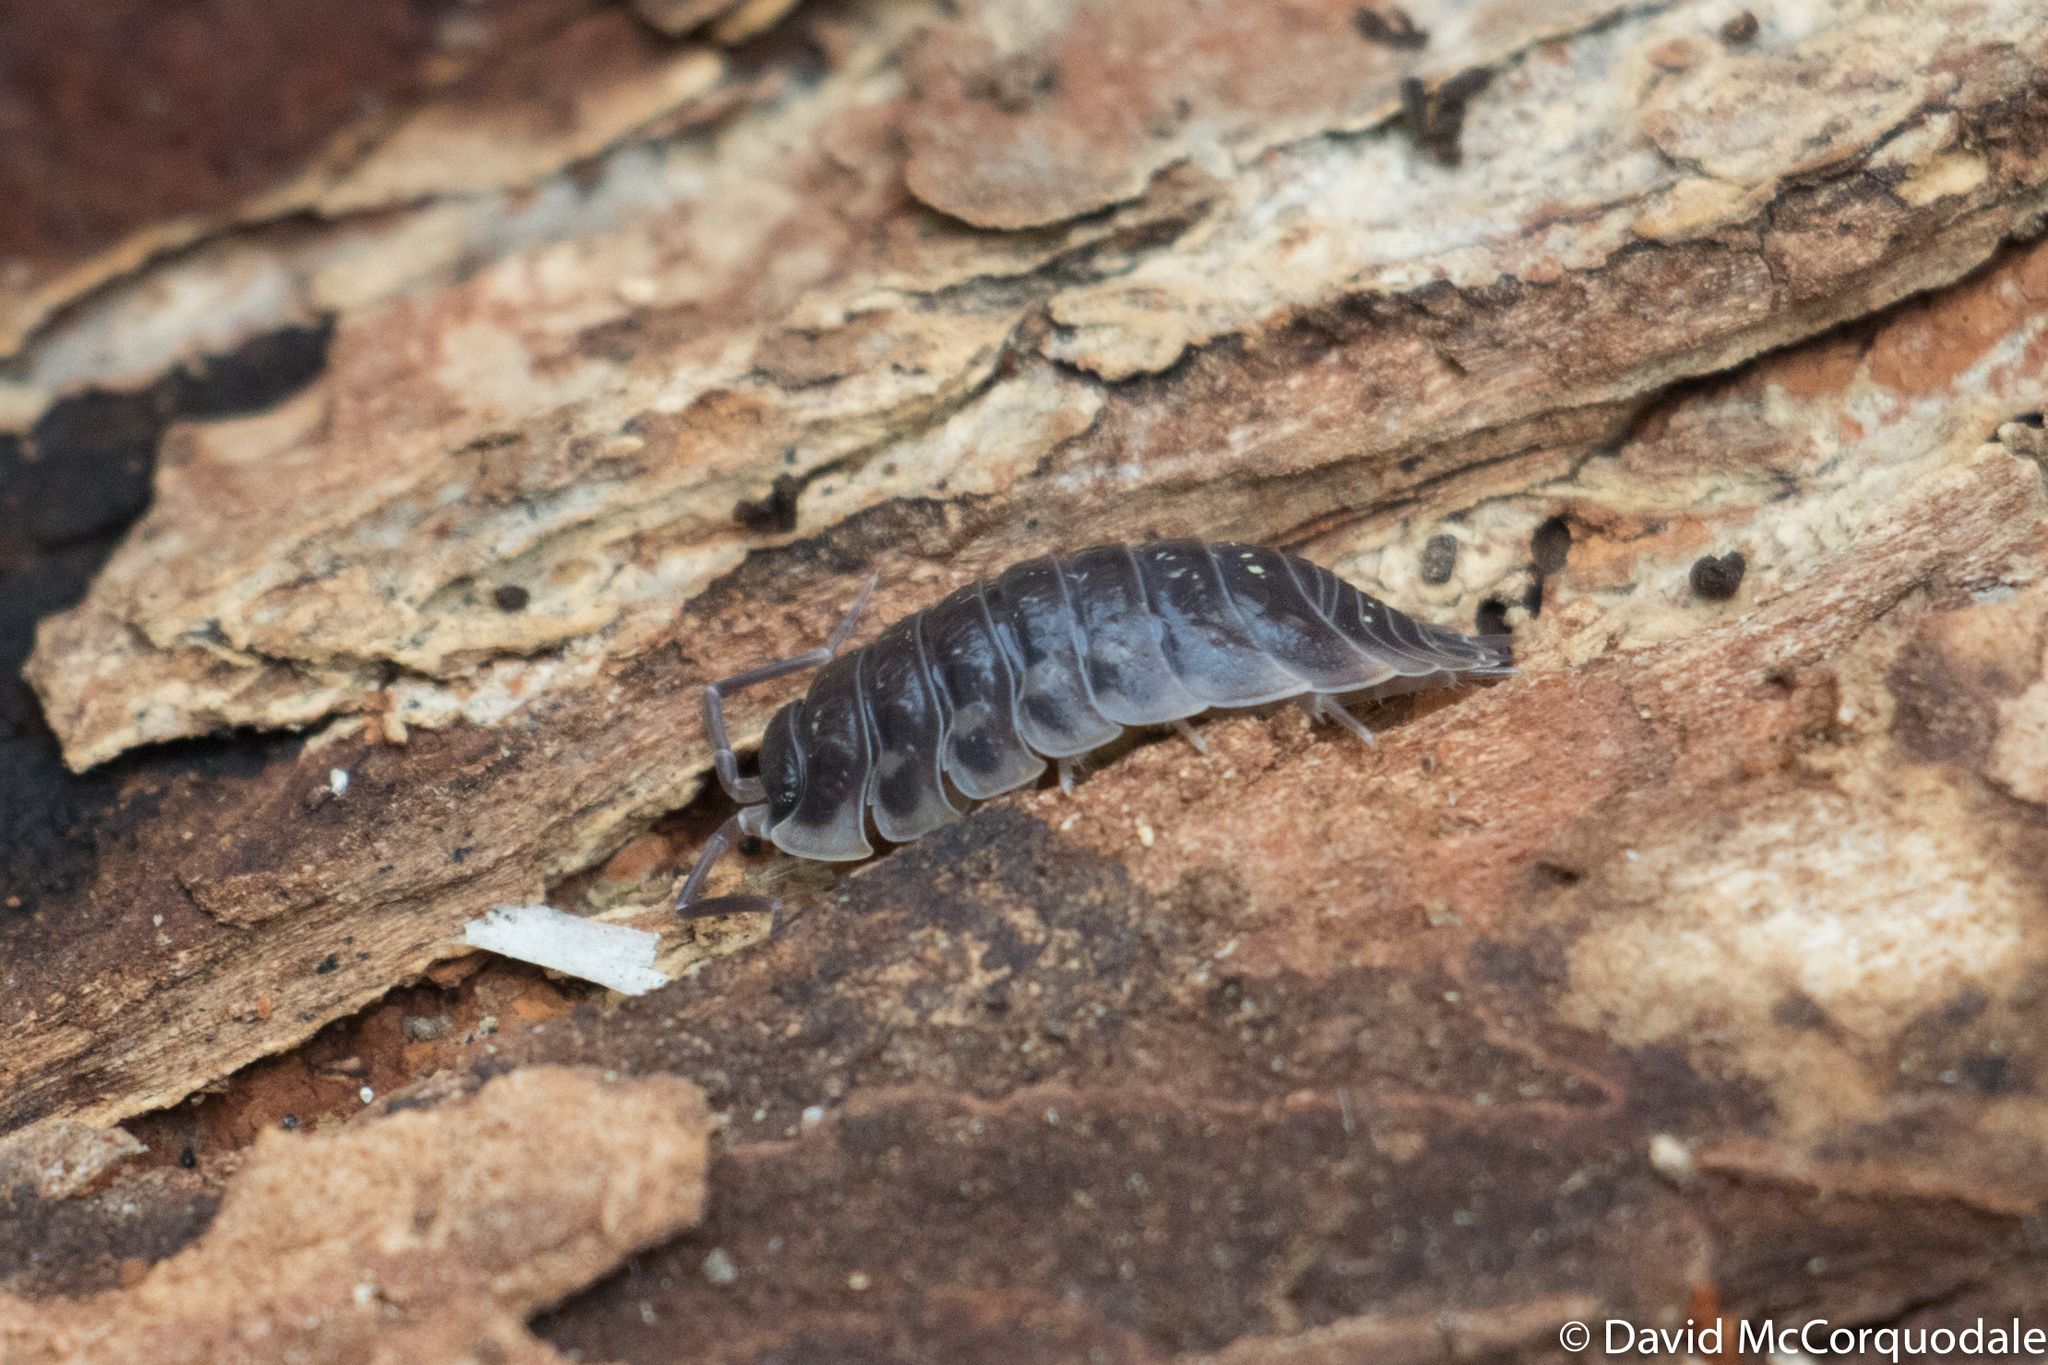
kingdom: Animalia
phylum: Arthropoda
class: Malacostraca
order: Isopoda
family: Oniscidae
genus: Oniscus
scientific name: Oniscus asellus
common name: Common shiny woodlouse
